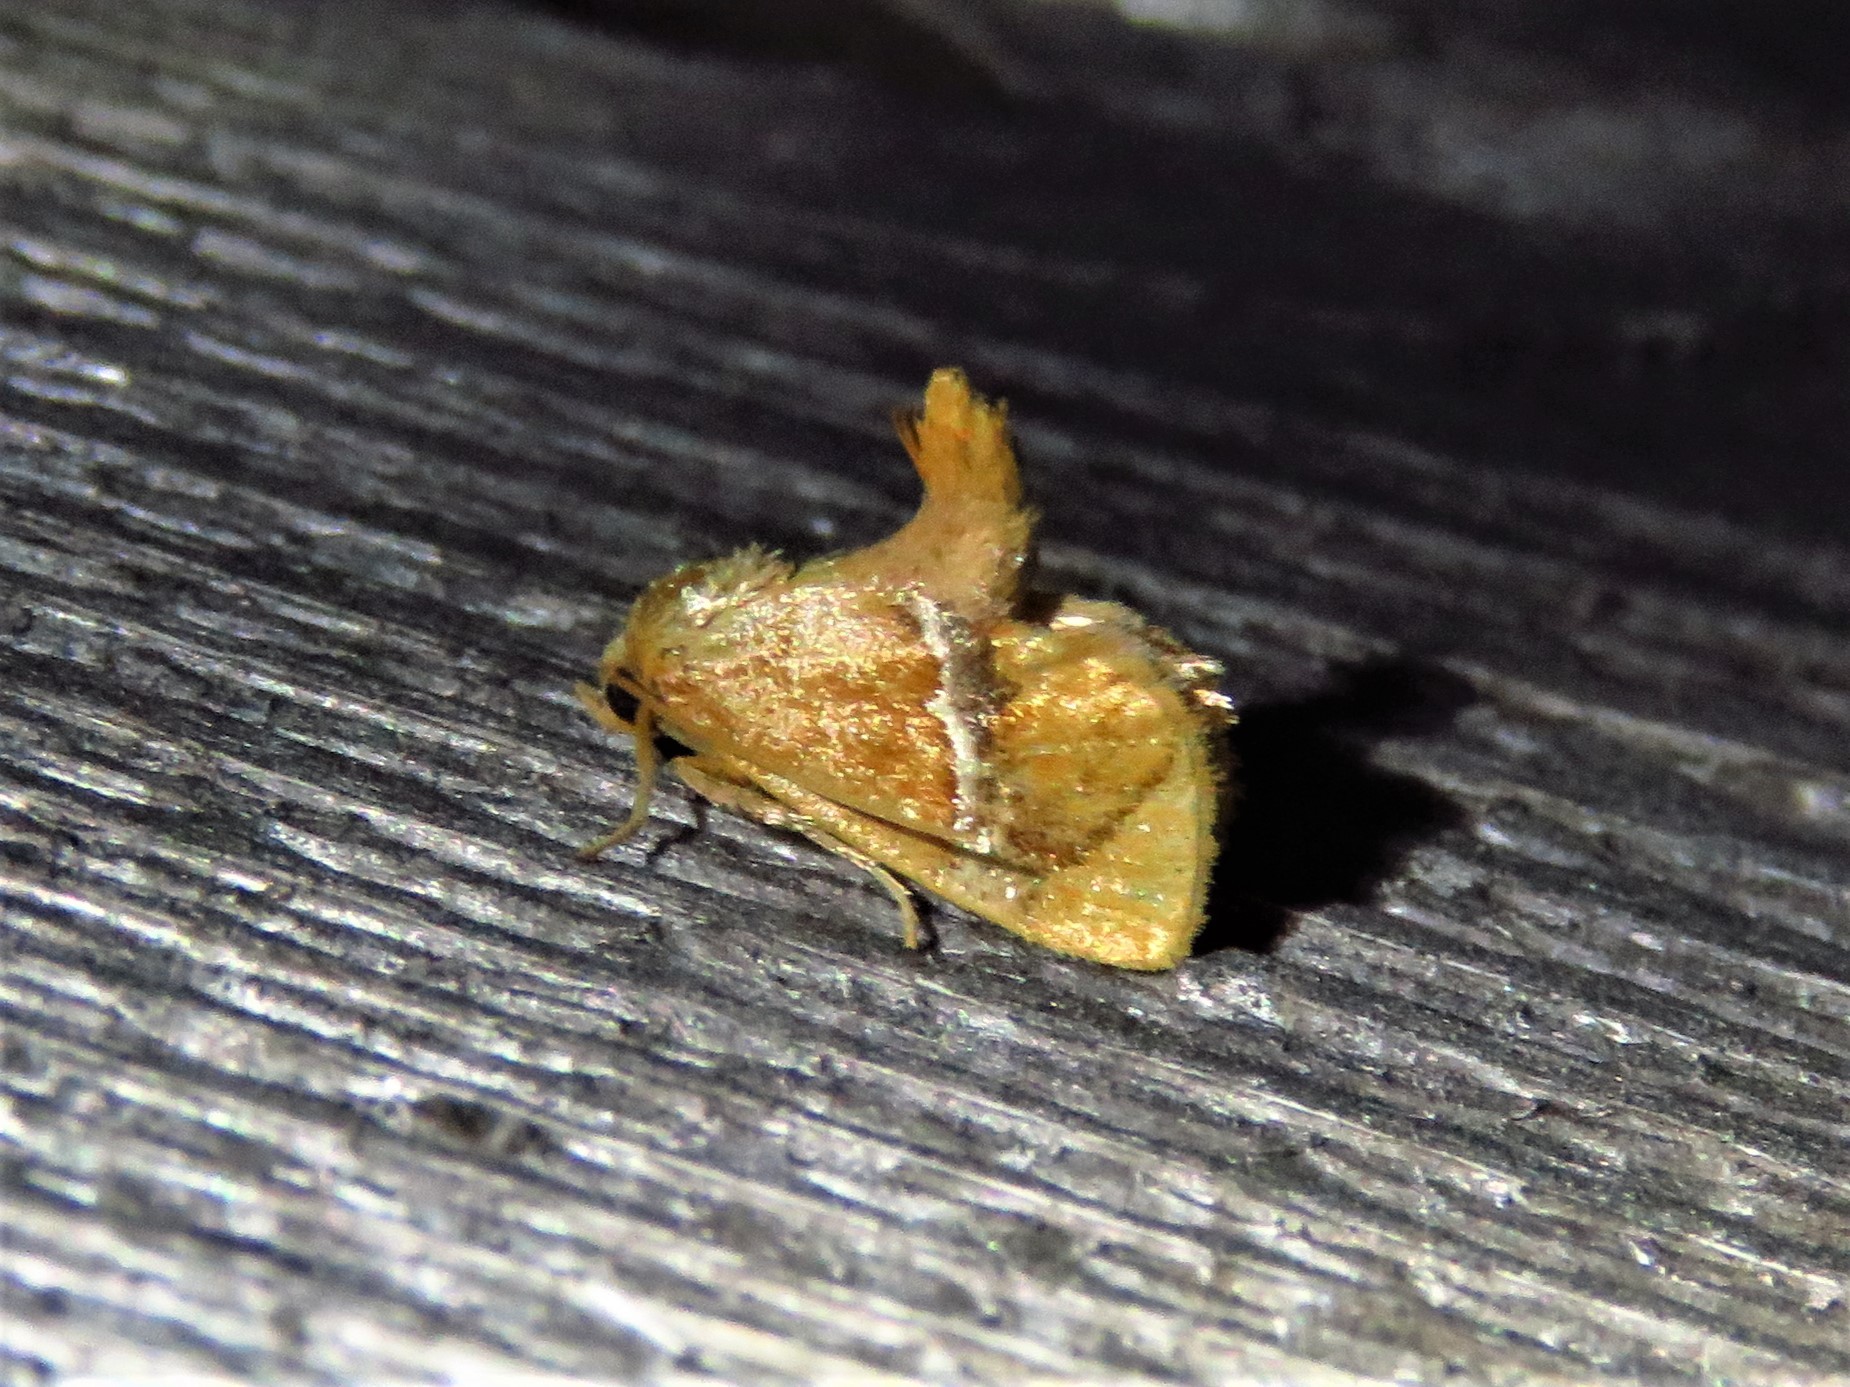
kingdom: Animalia
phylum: Arthropoda
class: Insecta
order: Lepidoptera
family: Limacodidae
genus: Lithacodes
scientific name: Lithacodes fasciola
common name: Yellow-shouldered slug moth
